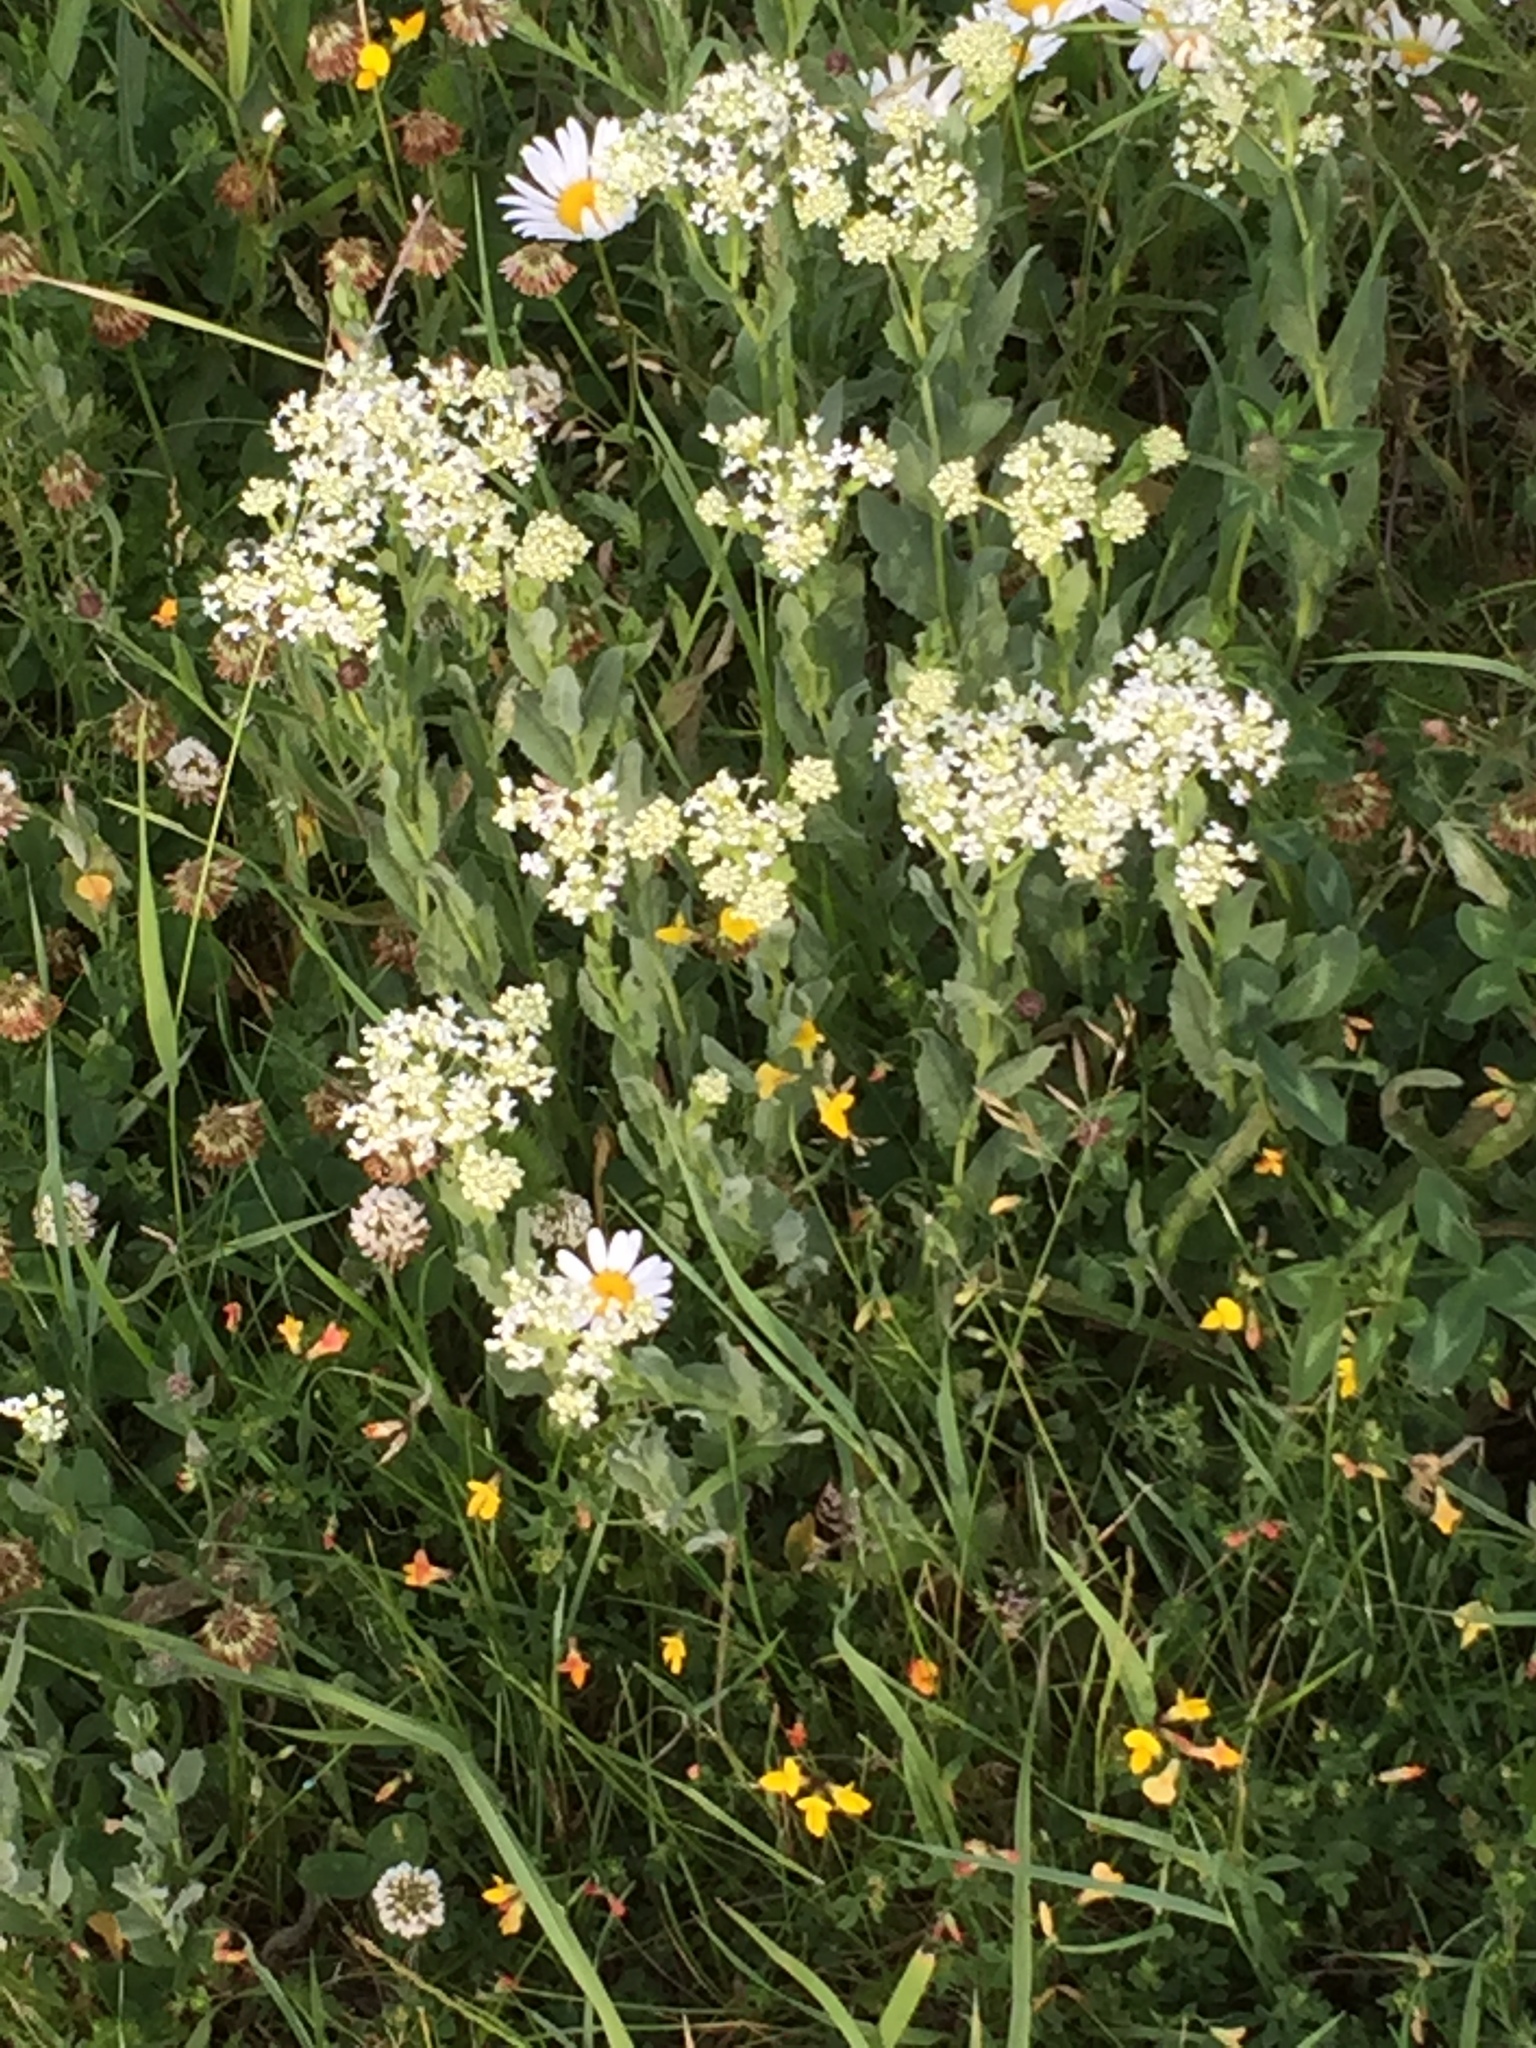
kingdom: Plantae
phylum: Tracheophyta
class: Magnoliopsida
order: Brassicales
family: Brassicaceae
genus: Lepidium
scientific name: Lepidium draba
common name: Hoary cress
